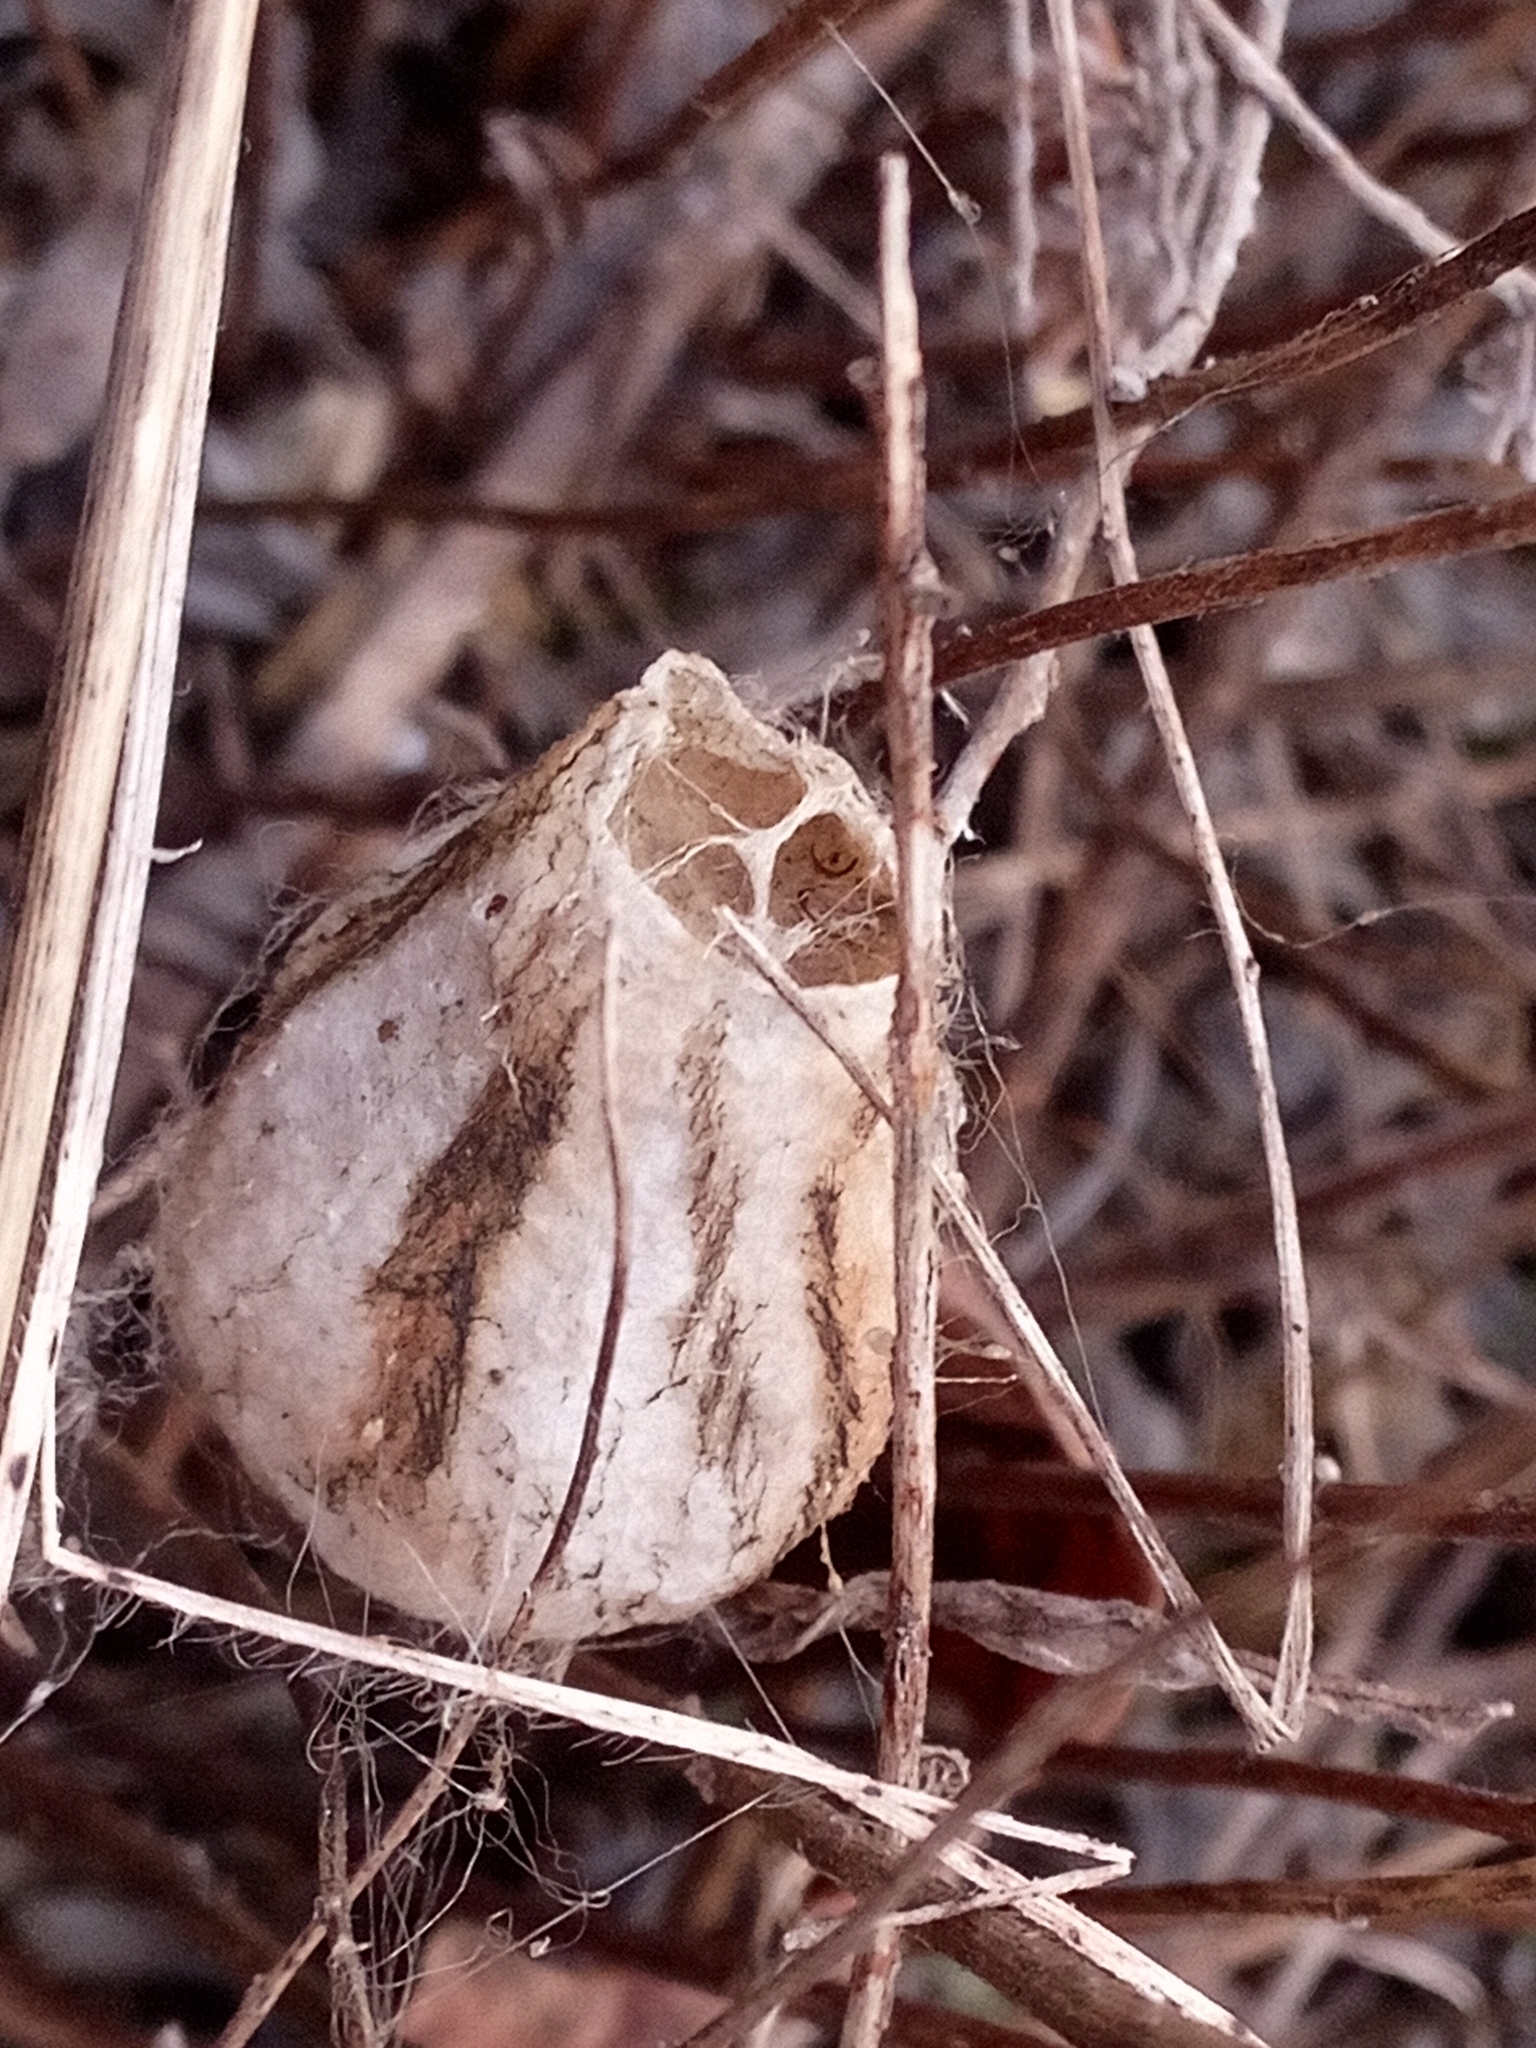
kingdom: Animalia
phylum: Arthropoda
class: Arachnida
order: Araneae
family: Araneidae
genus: Argiope
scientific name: Argiope bruennichi
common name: Wasp spider
